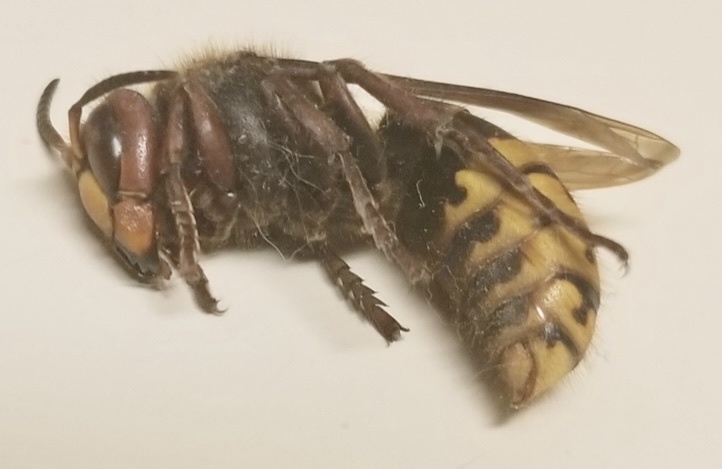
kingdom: Animalia
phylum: Arthropoda
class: Insecta
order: Hymenoptera
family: Vespidae
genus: Vespa
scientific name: Vespa crabro
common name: Hornet
